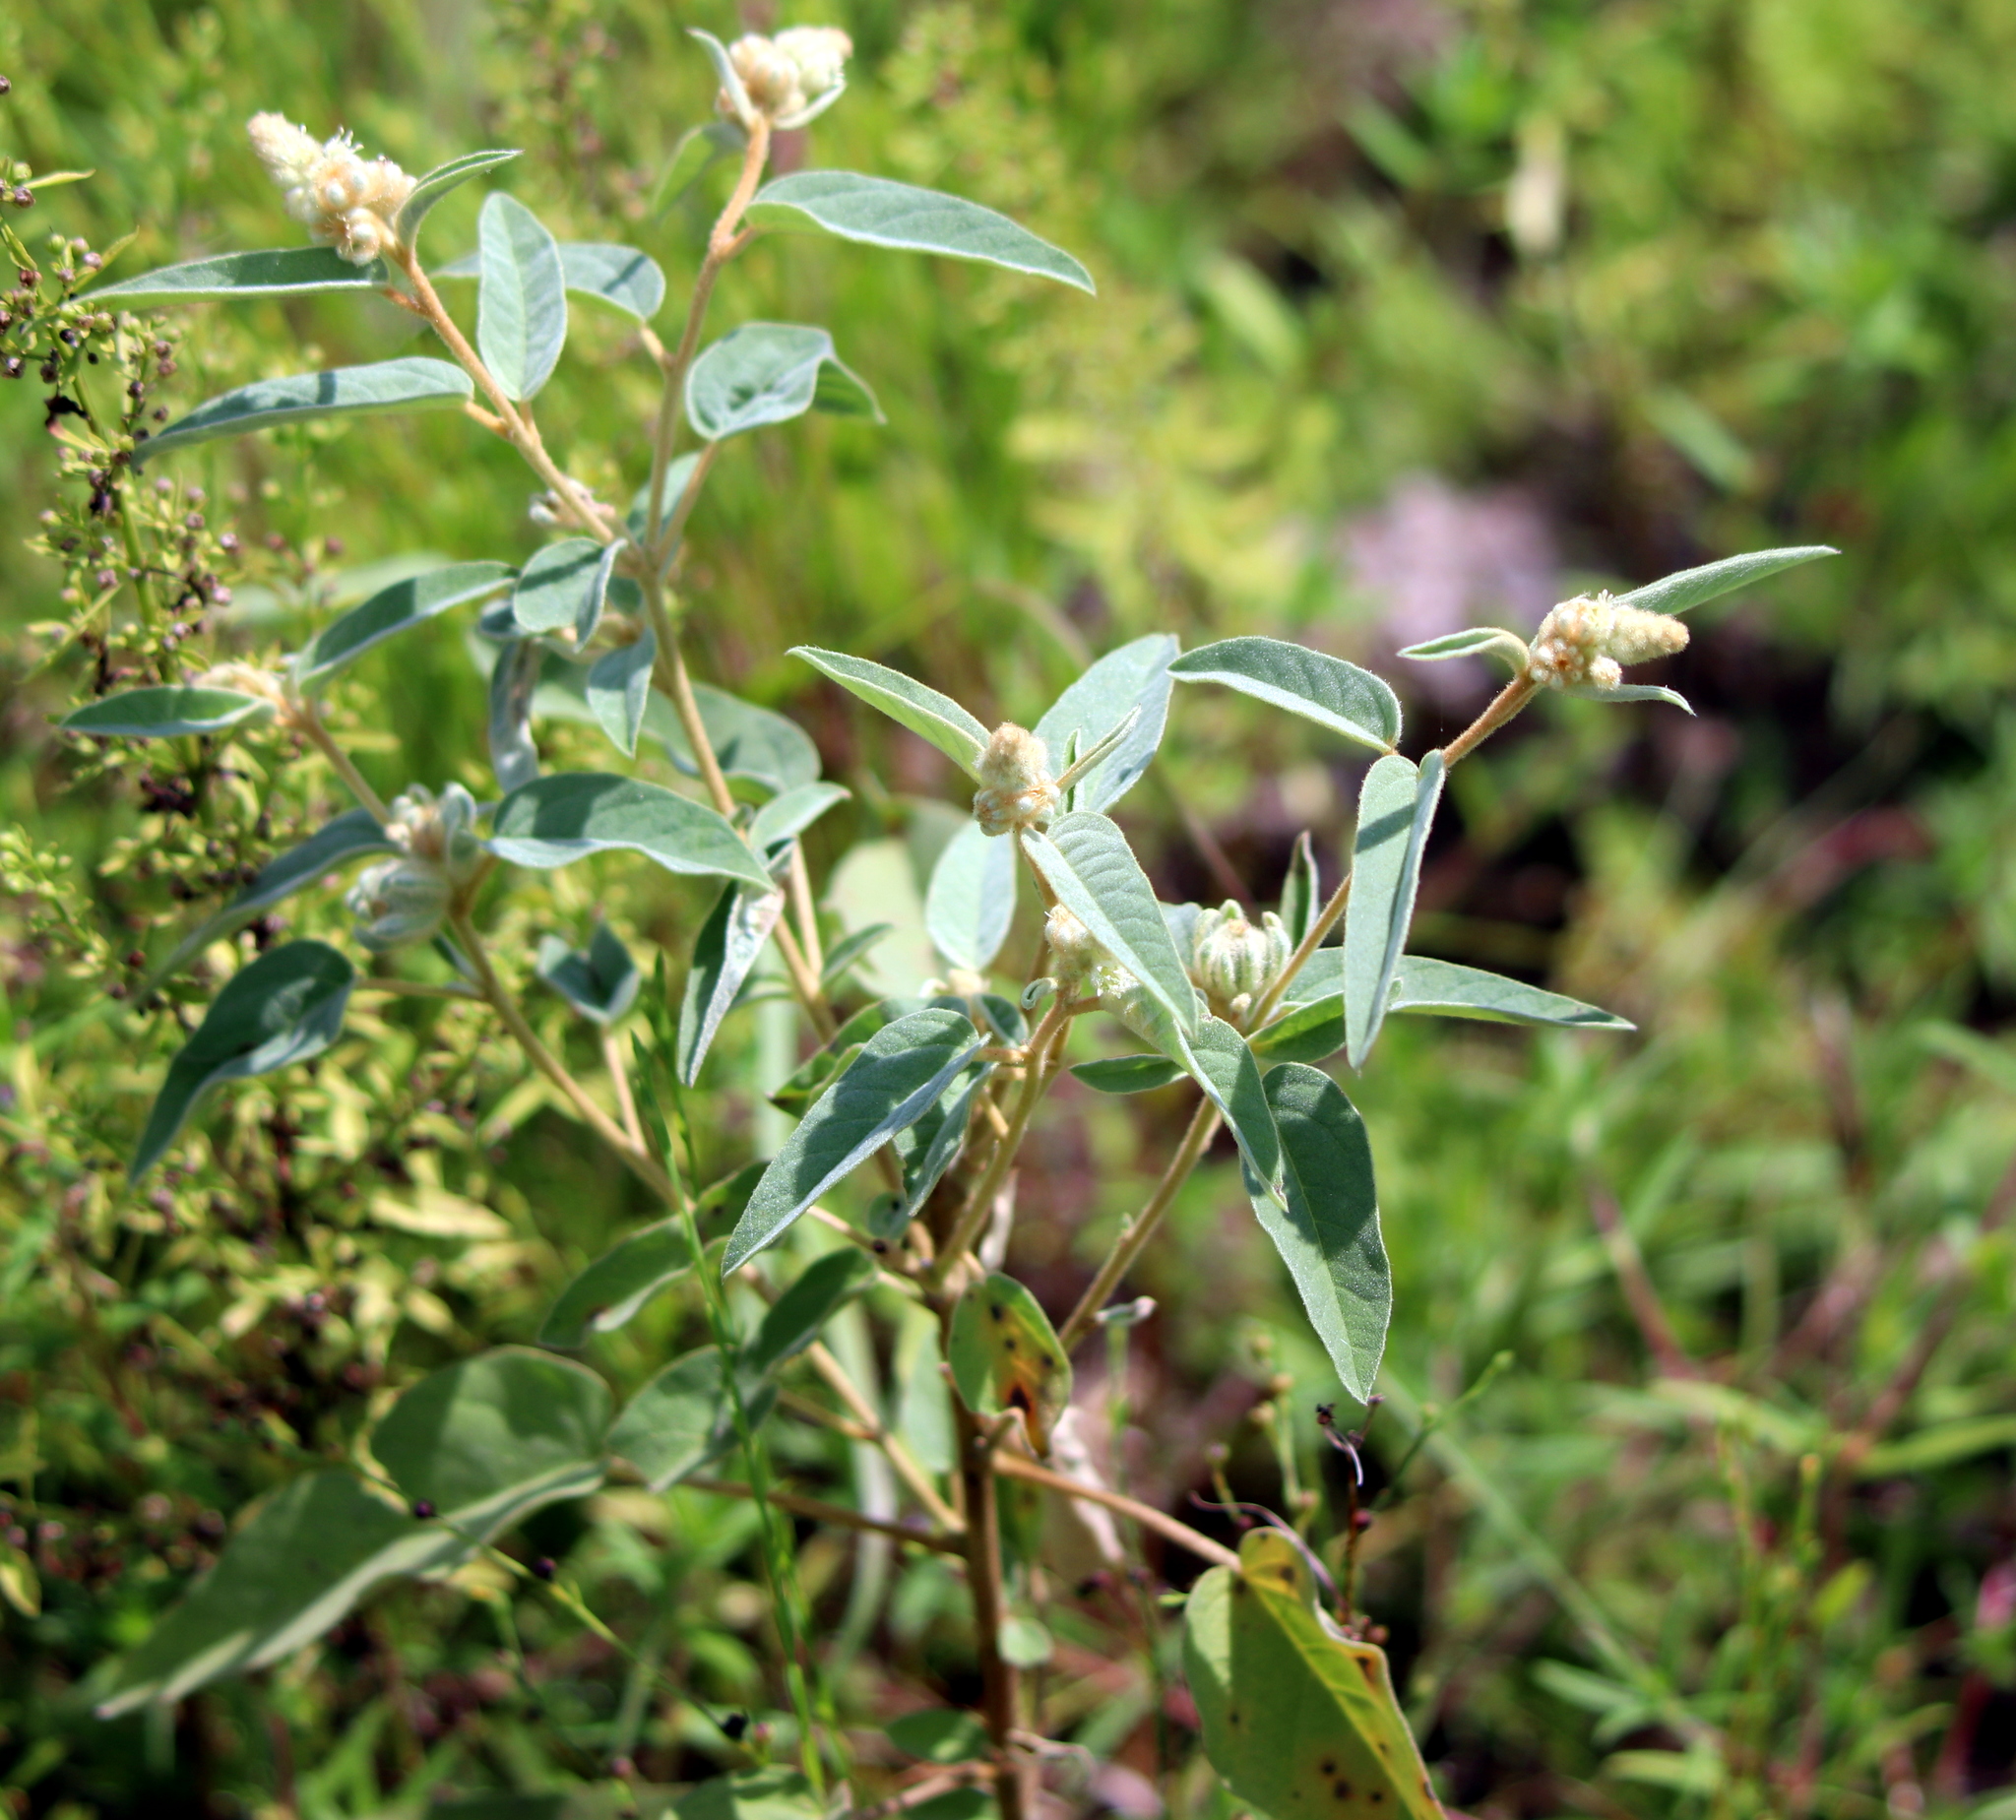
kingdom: Plantae
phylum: Tracheophyta
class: Magnoliopsida
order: Malpighiales
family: Euphorbiaceae
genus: Croton
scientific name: Croton lindheimeri
